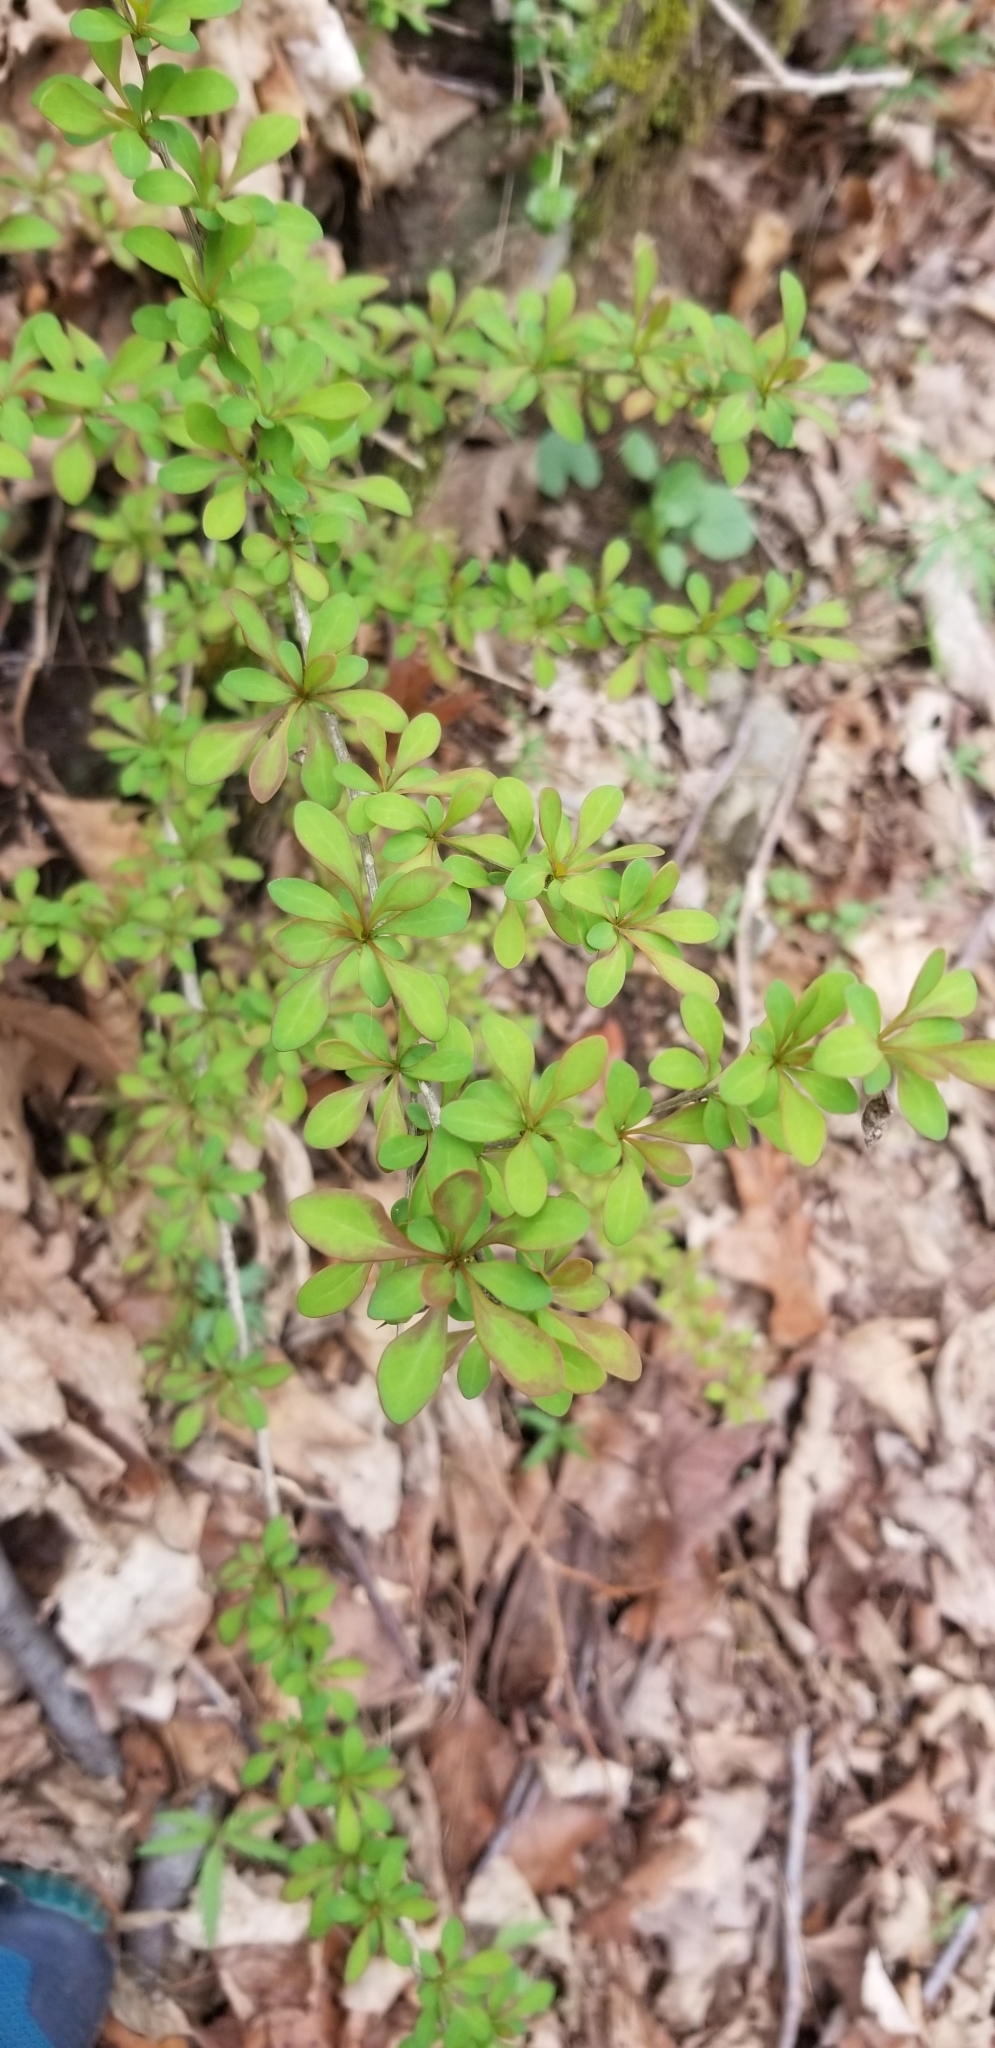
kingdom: Plantae
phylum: Tracheophyta
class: Magnoliopsida
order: Ranunculales
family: Berberidaceae
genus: Berberis
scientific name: Berberis thunbergii
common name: Japanese barberry
